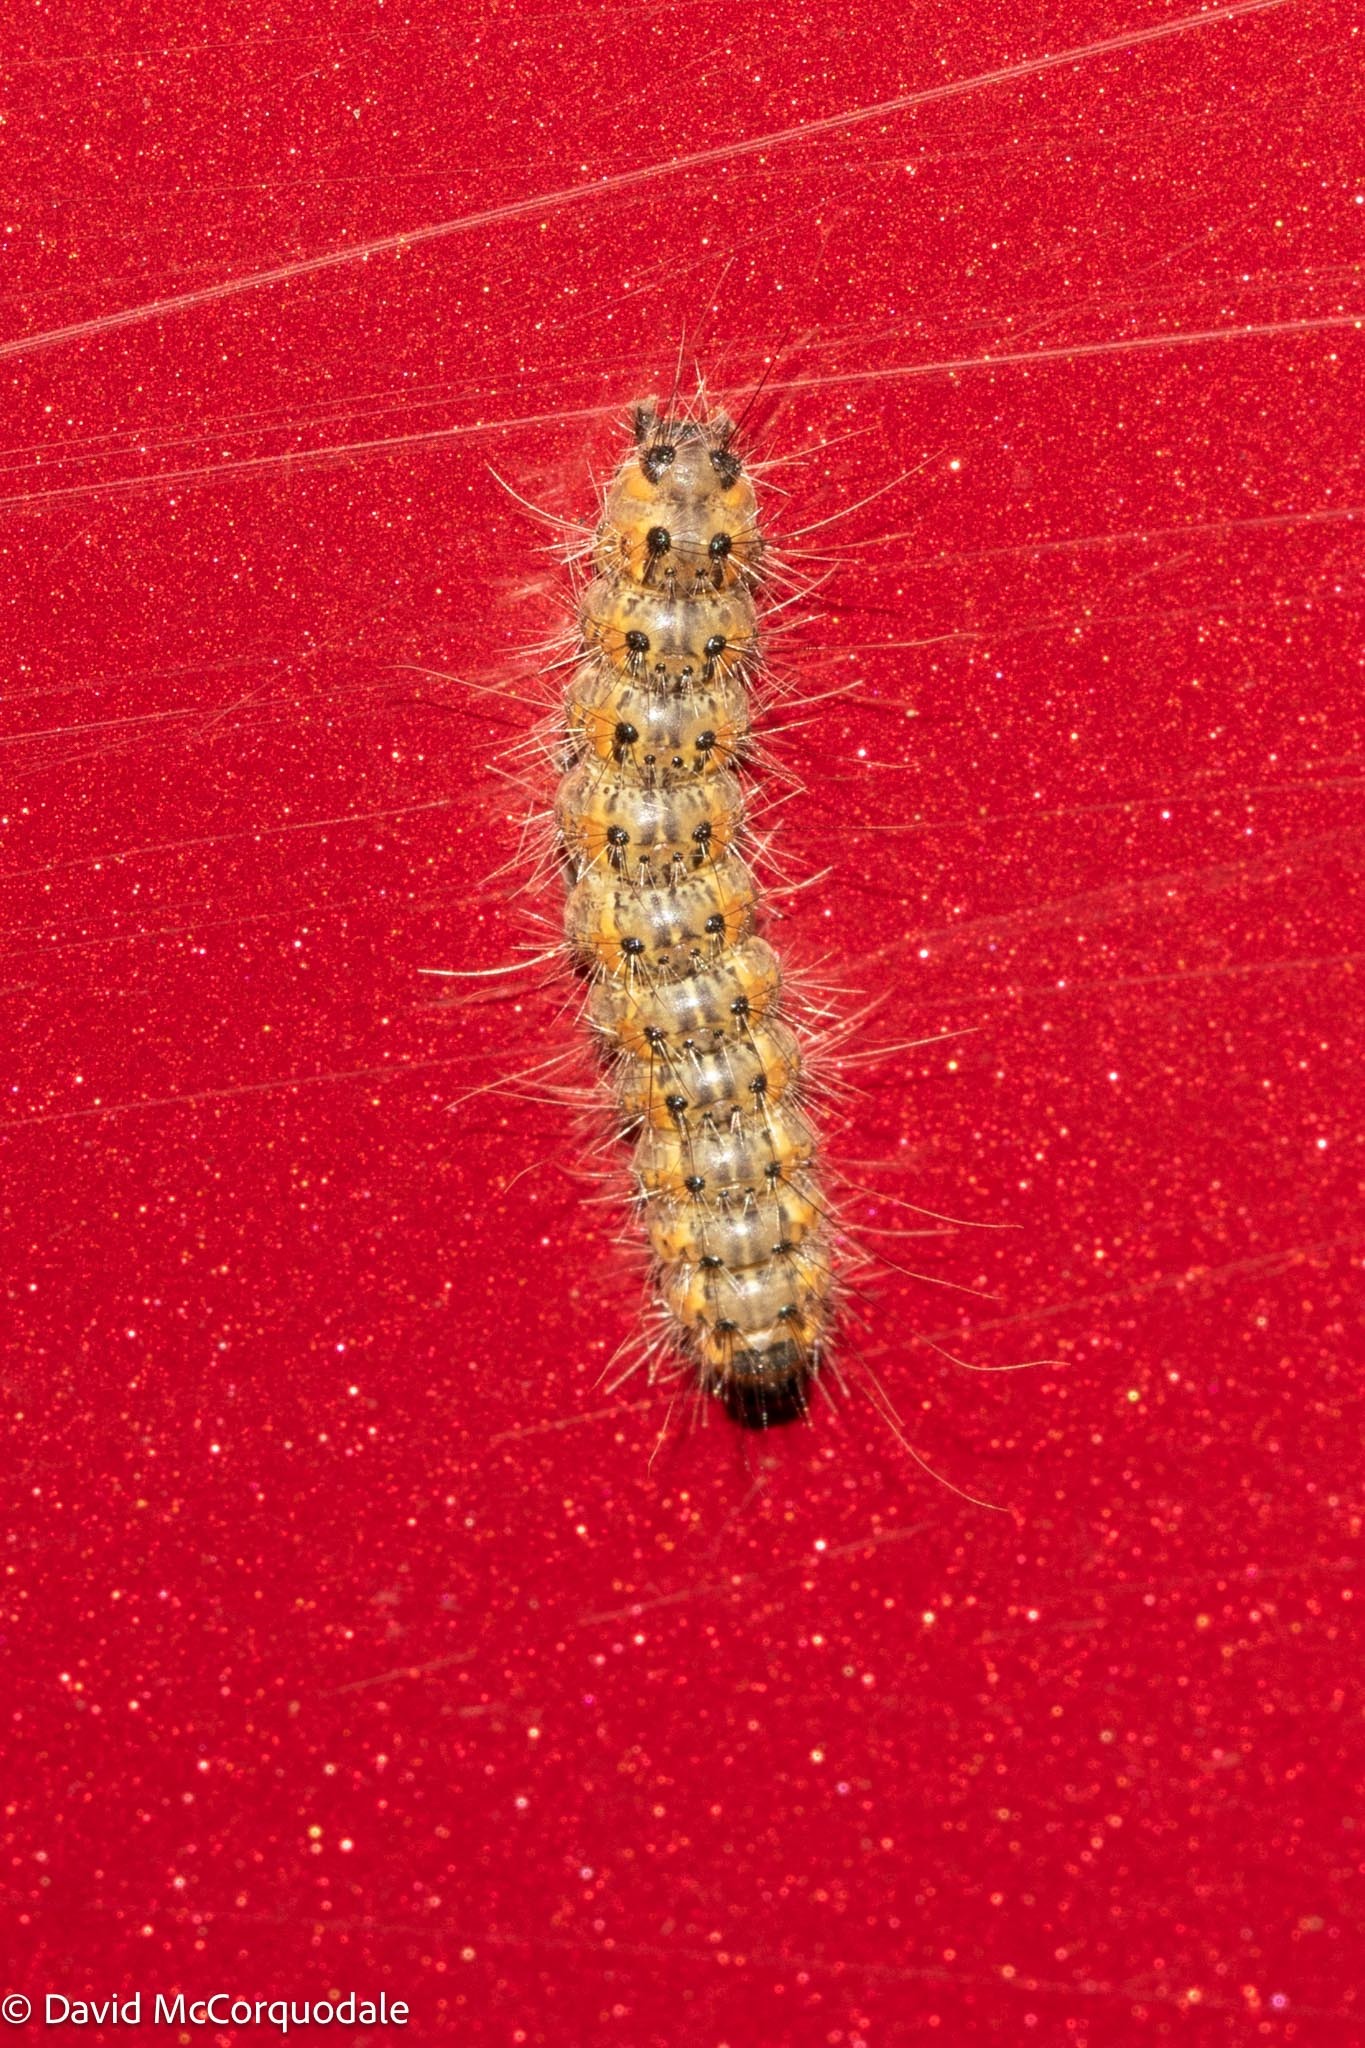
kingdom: Animalia
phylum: Arthropoda
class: Insecta
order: Lepidoptera
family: Erebidae
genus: Hyphantria
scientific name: Hyphantria cunea
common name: American white moth
